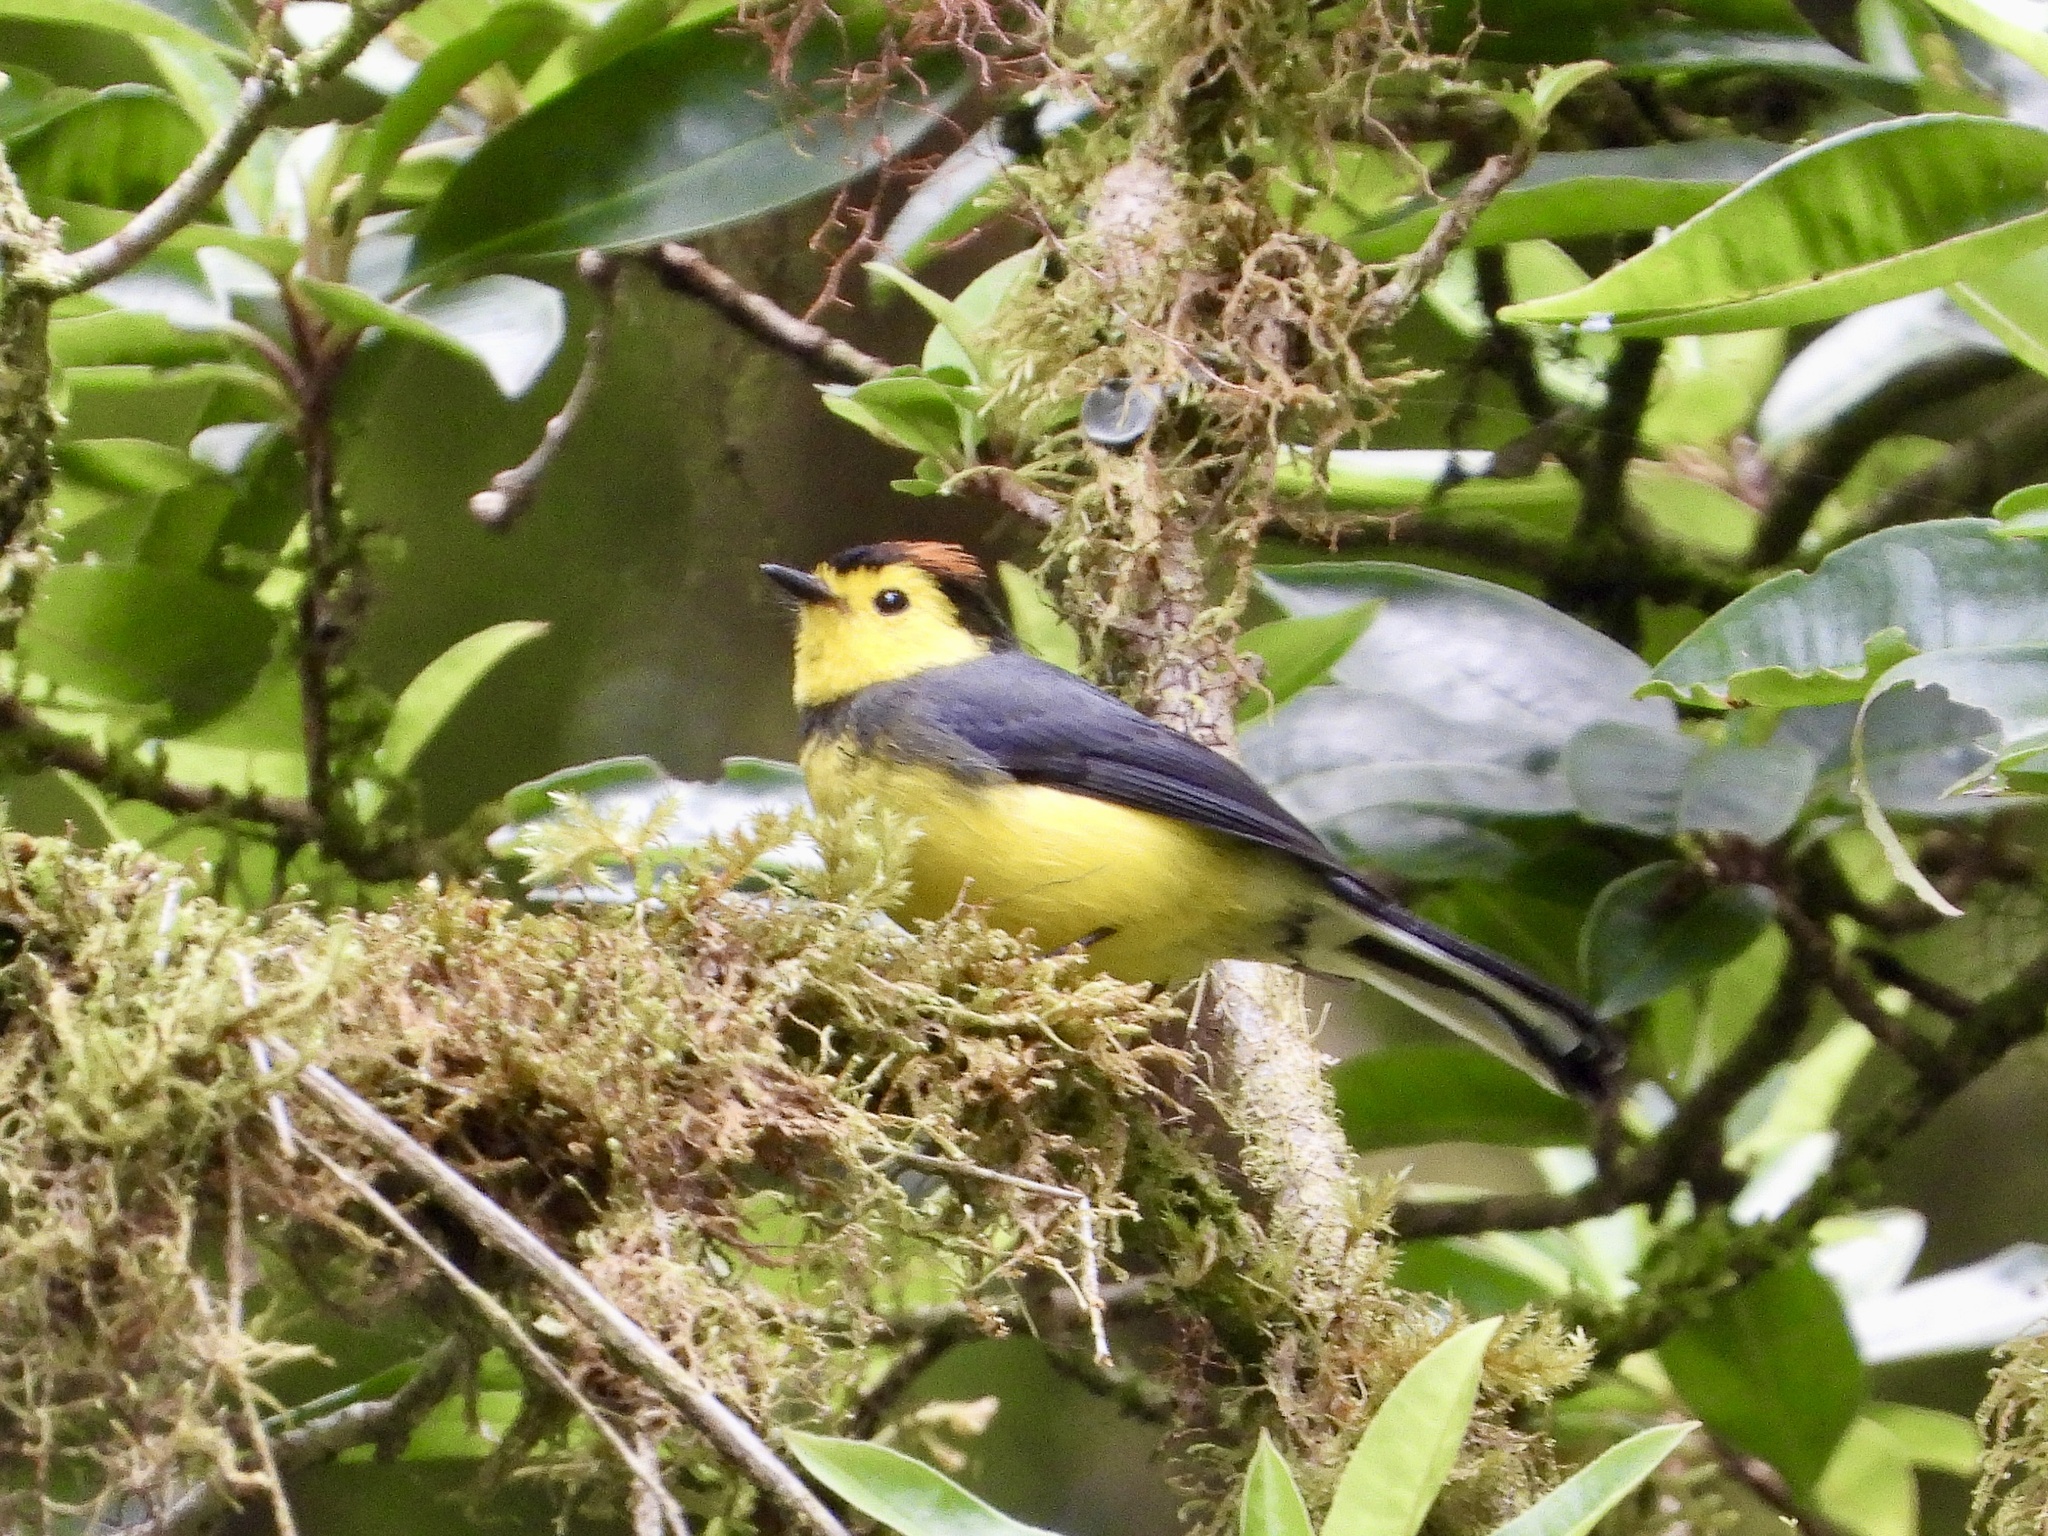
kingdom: Animalia
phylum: Chordata
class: Aves
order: Passeriformes
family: Parulidae
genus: Myioborus
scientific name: Myioborus torquatus
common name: Collared whitestart
